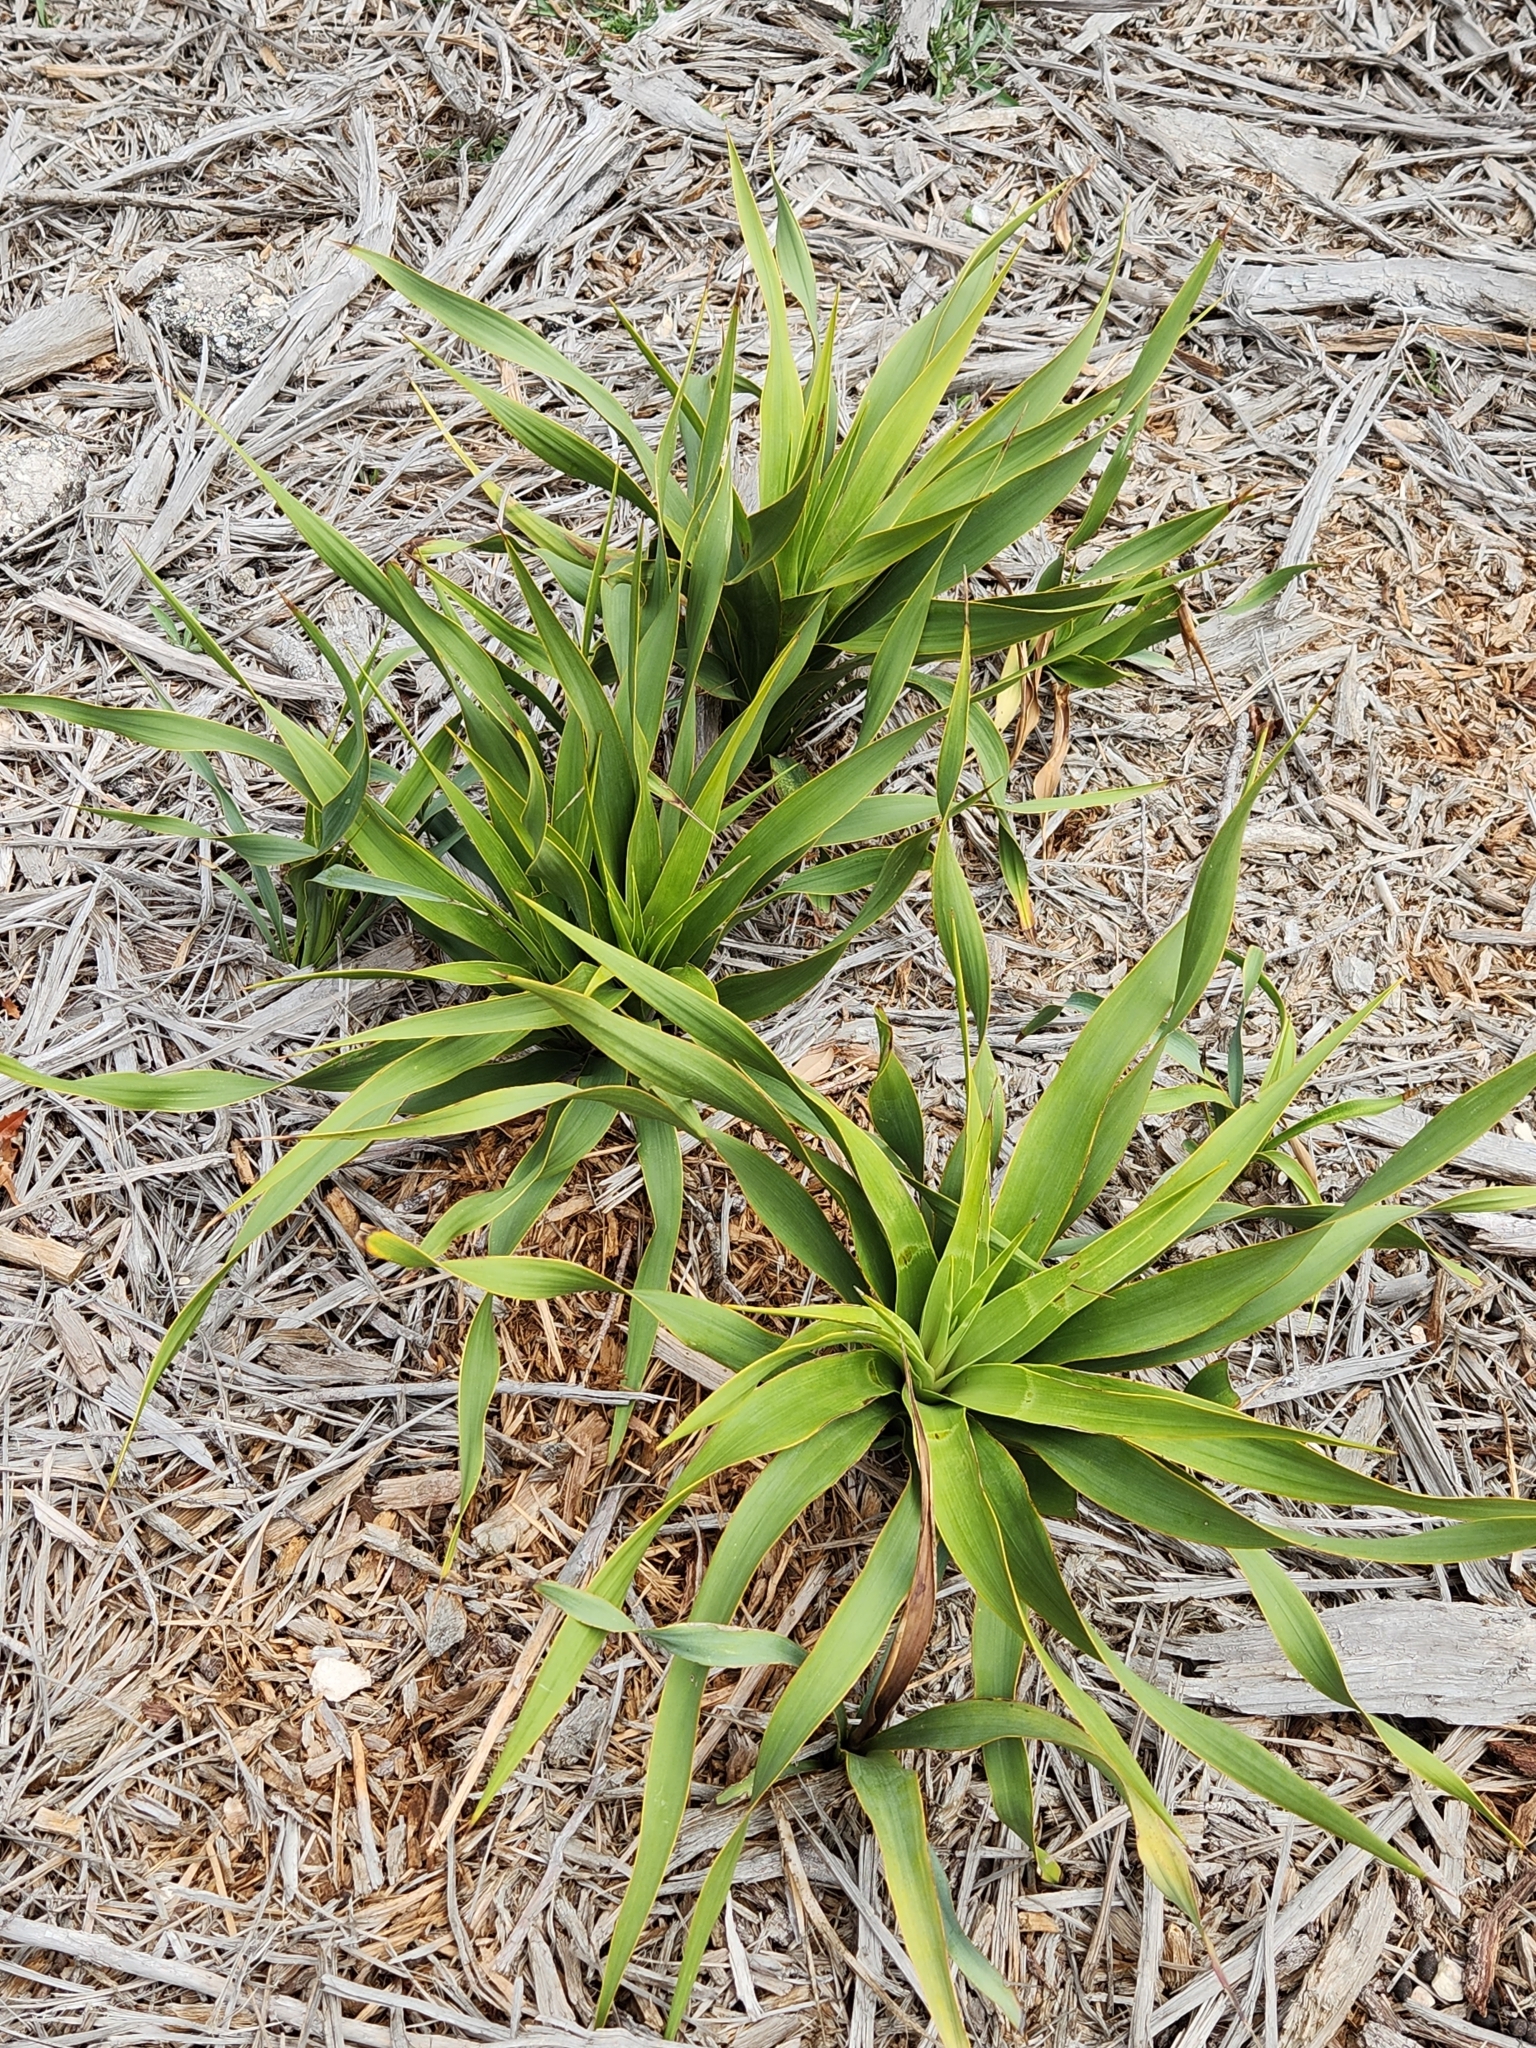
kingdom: Plantae
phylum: Tracheophyta
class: Liliopsida
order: Asparagales
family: Asparagaceae
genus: Yucca
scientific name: Yucca rupicola
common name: Twisted-leaf spanish-dagger
